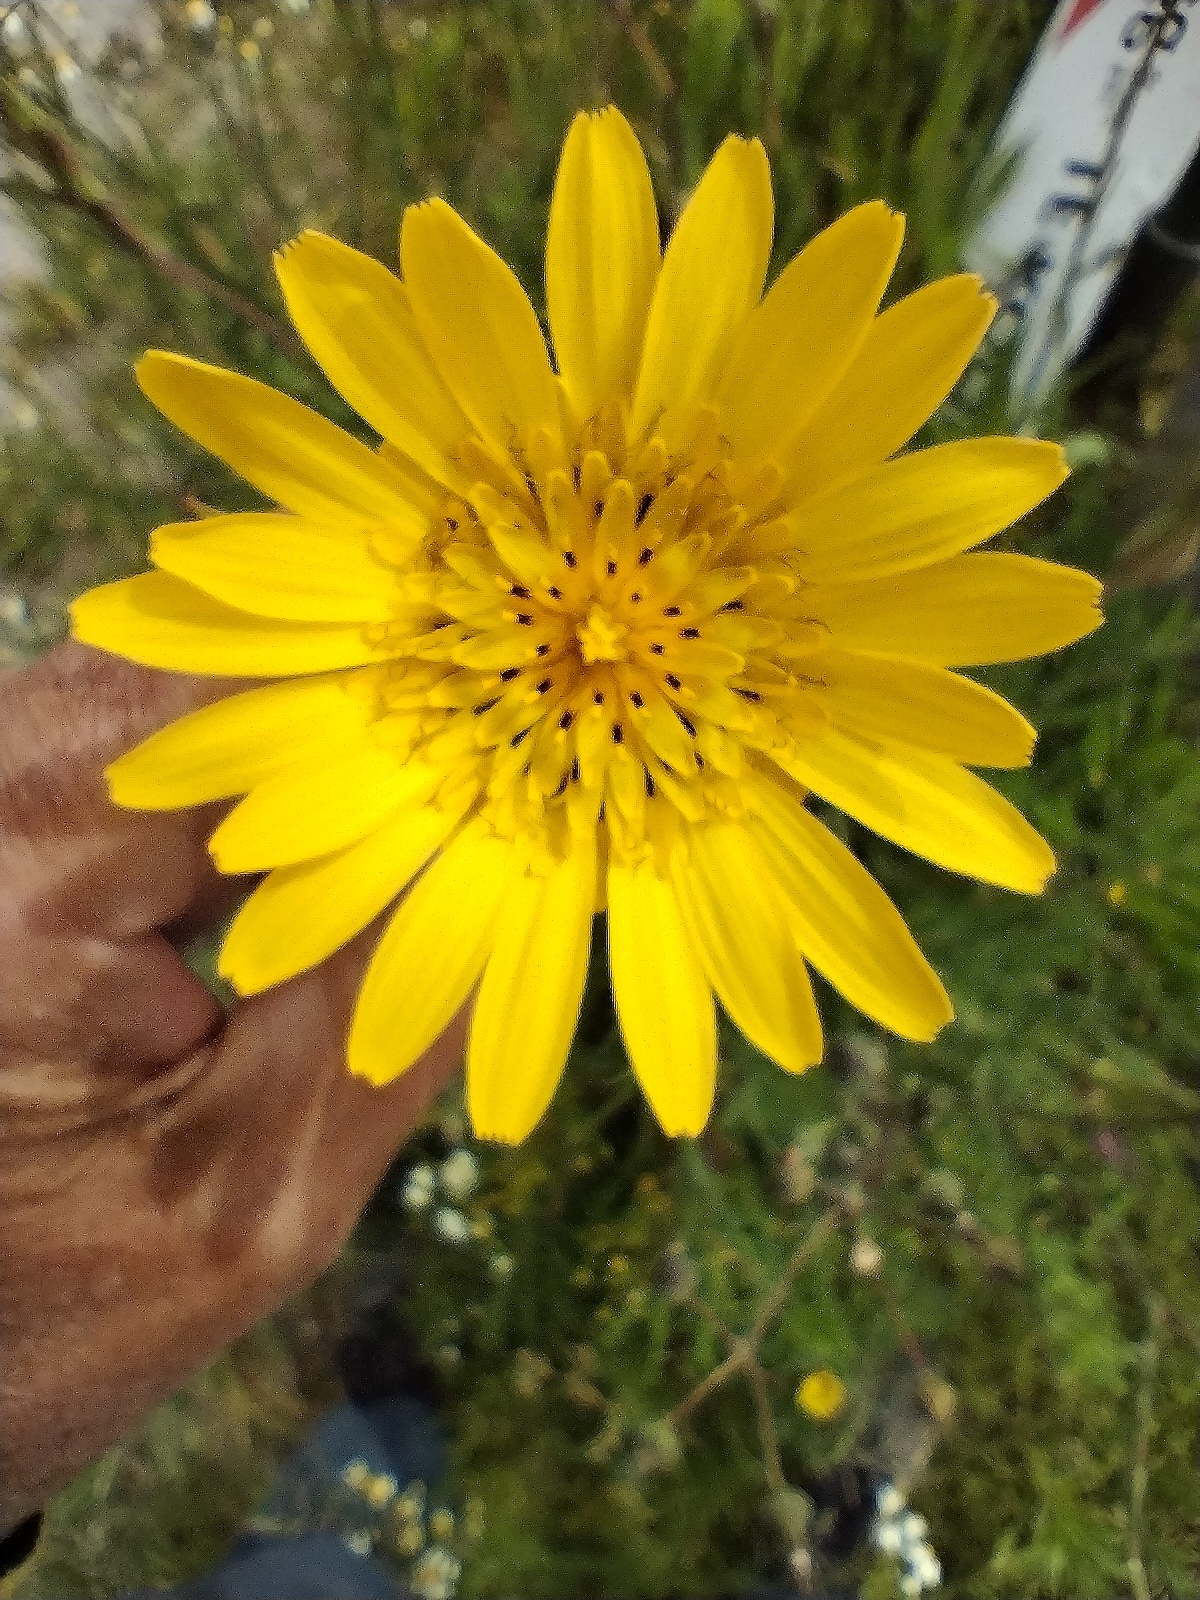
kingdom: Plantae
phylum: Tracheophyta
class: Magnoliopsida
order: Asterales
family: Asteraceae
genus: Tragopogon
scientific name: Tragopogon orientalis
